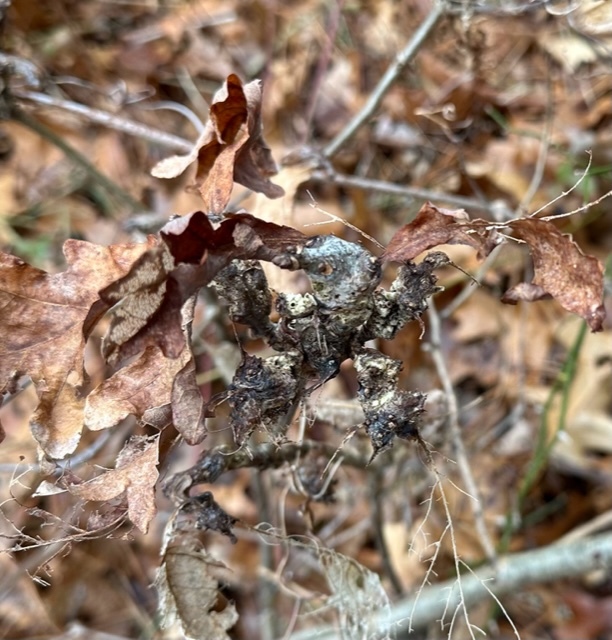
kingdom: Animalia
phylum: Arthropoda
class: Insecta
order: Hymenoptera
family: Cynipidae
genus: Neuroterus
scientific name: Neuroterus quercusbaccarum
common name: Common spangle gall
